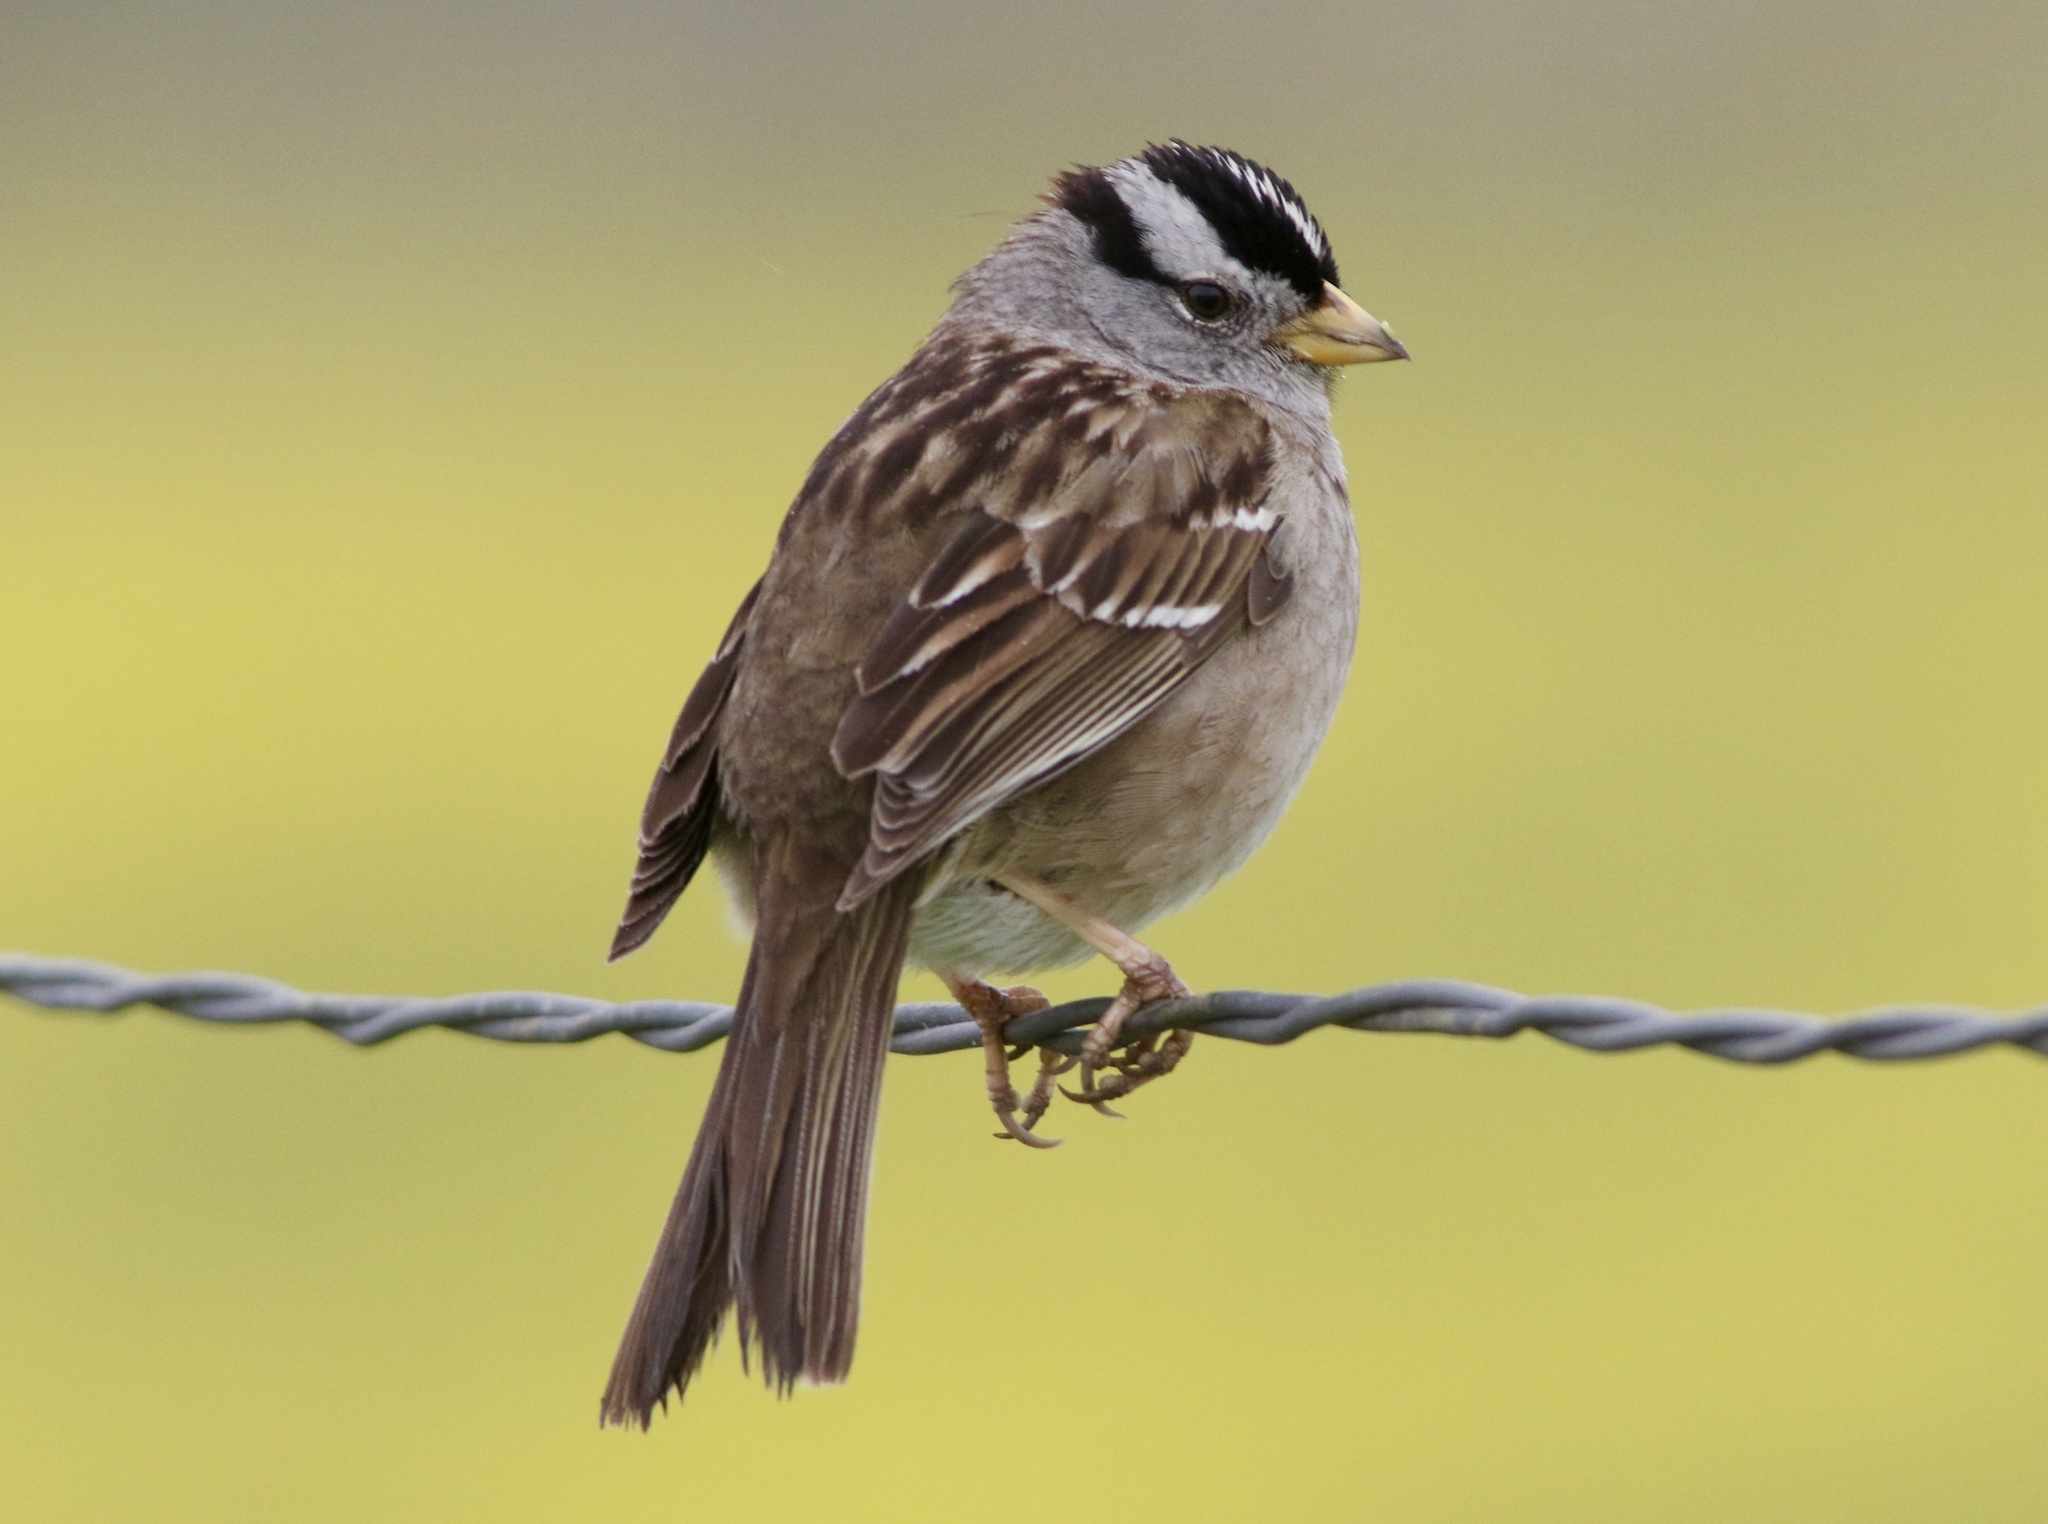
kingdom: Animalia
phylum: Chordata
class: Aves
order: Passeriformes
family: Passerellidae
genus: Zonotrichia
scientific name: Zonotrichia leucophrys
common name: White-crowned sparrow
